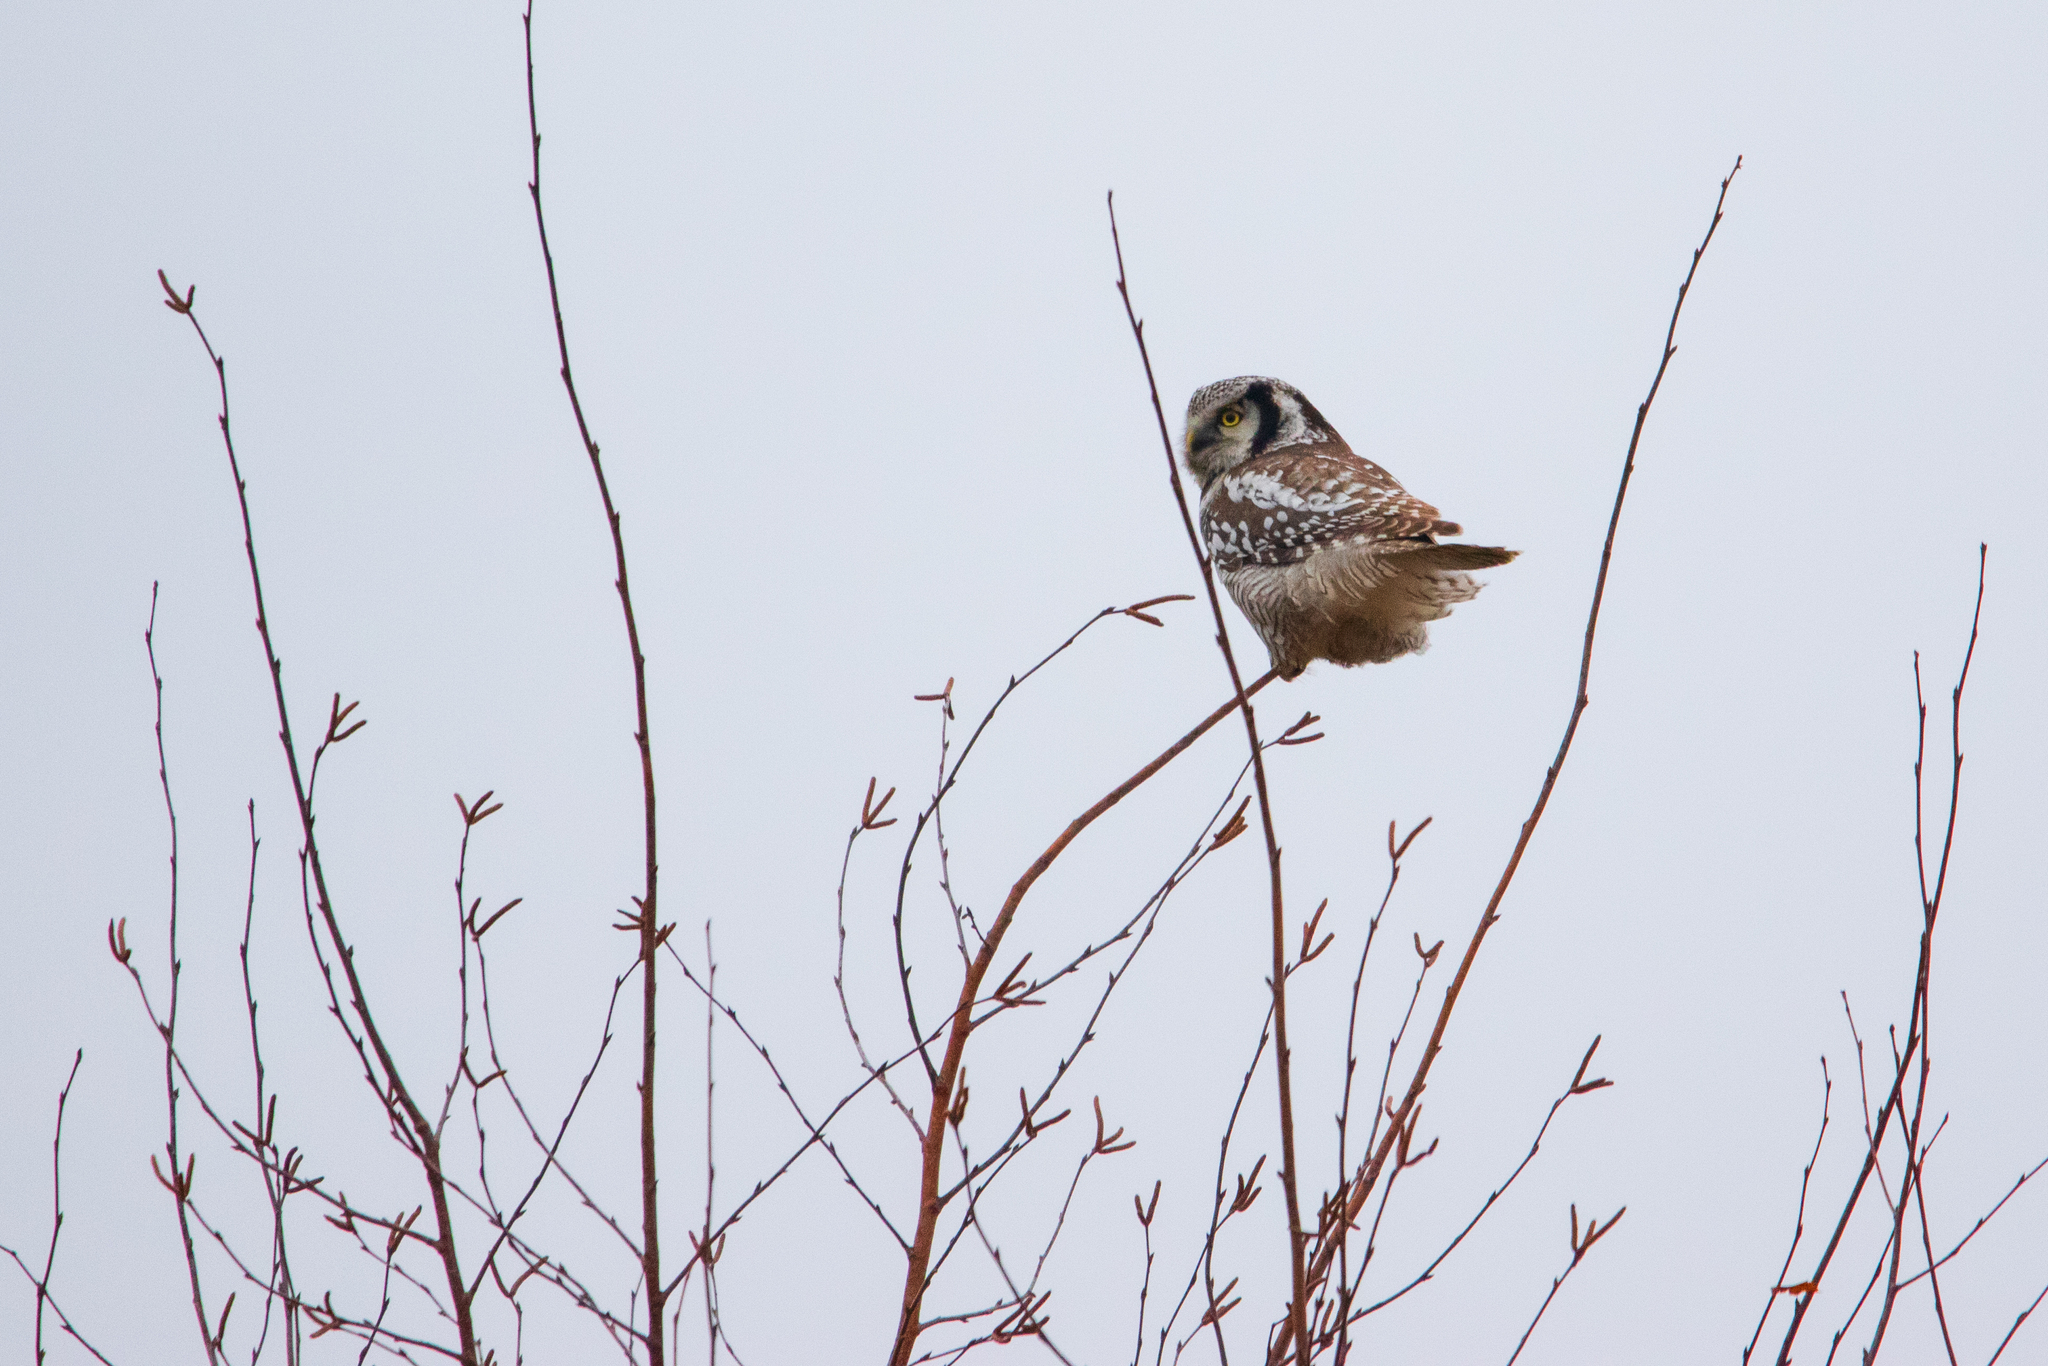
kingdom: Animalia
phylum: Chordata
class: Aves
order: Strigiformes
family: Strigidae
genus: Surnia
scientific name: Surnia ulula
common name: Northern hawk-owl
